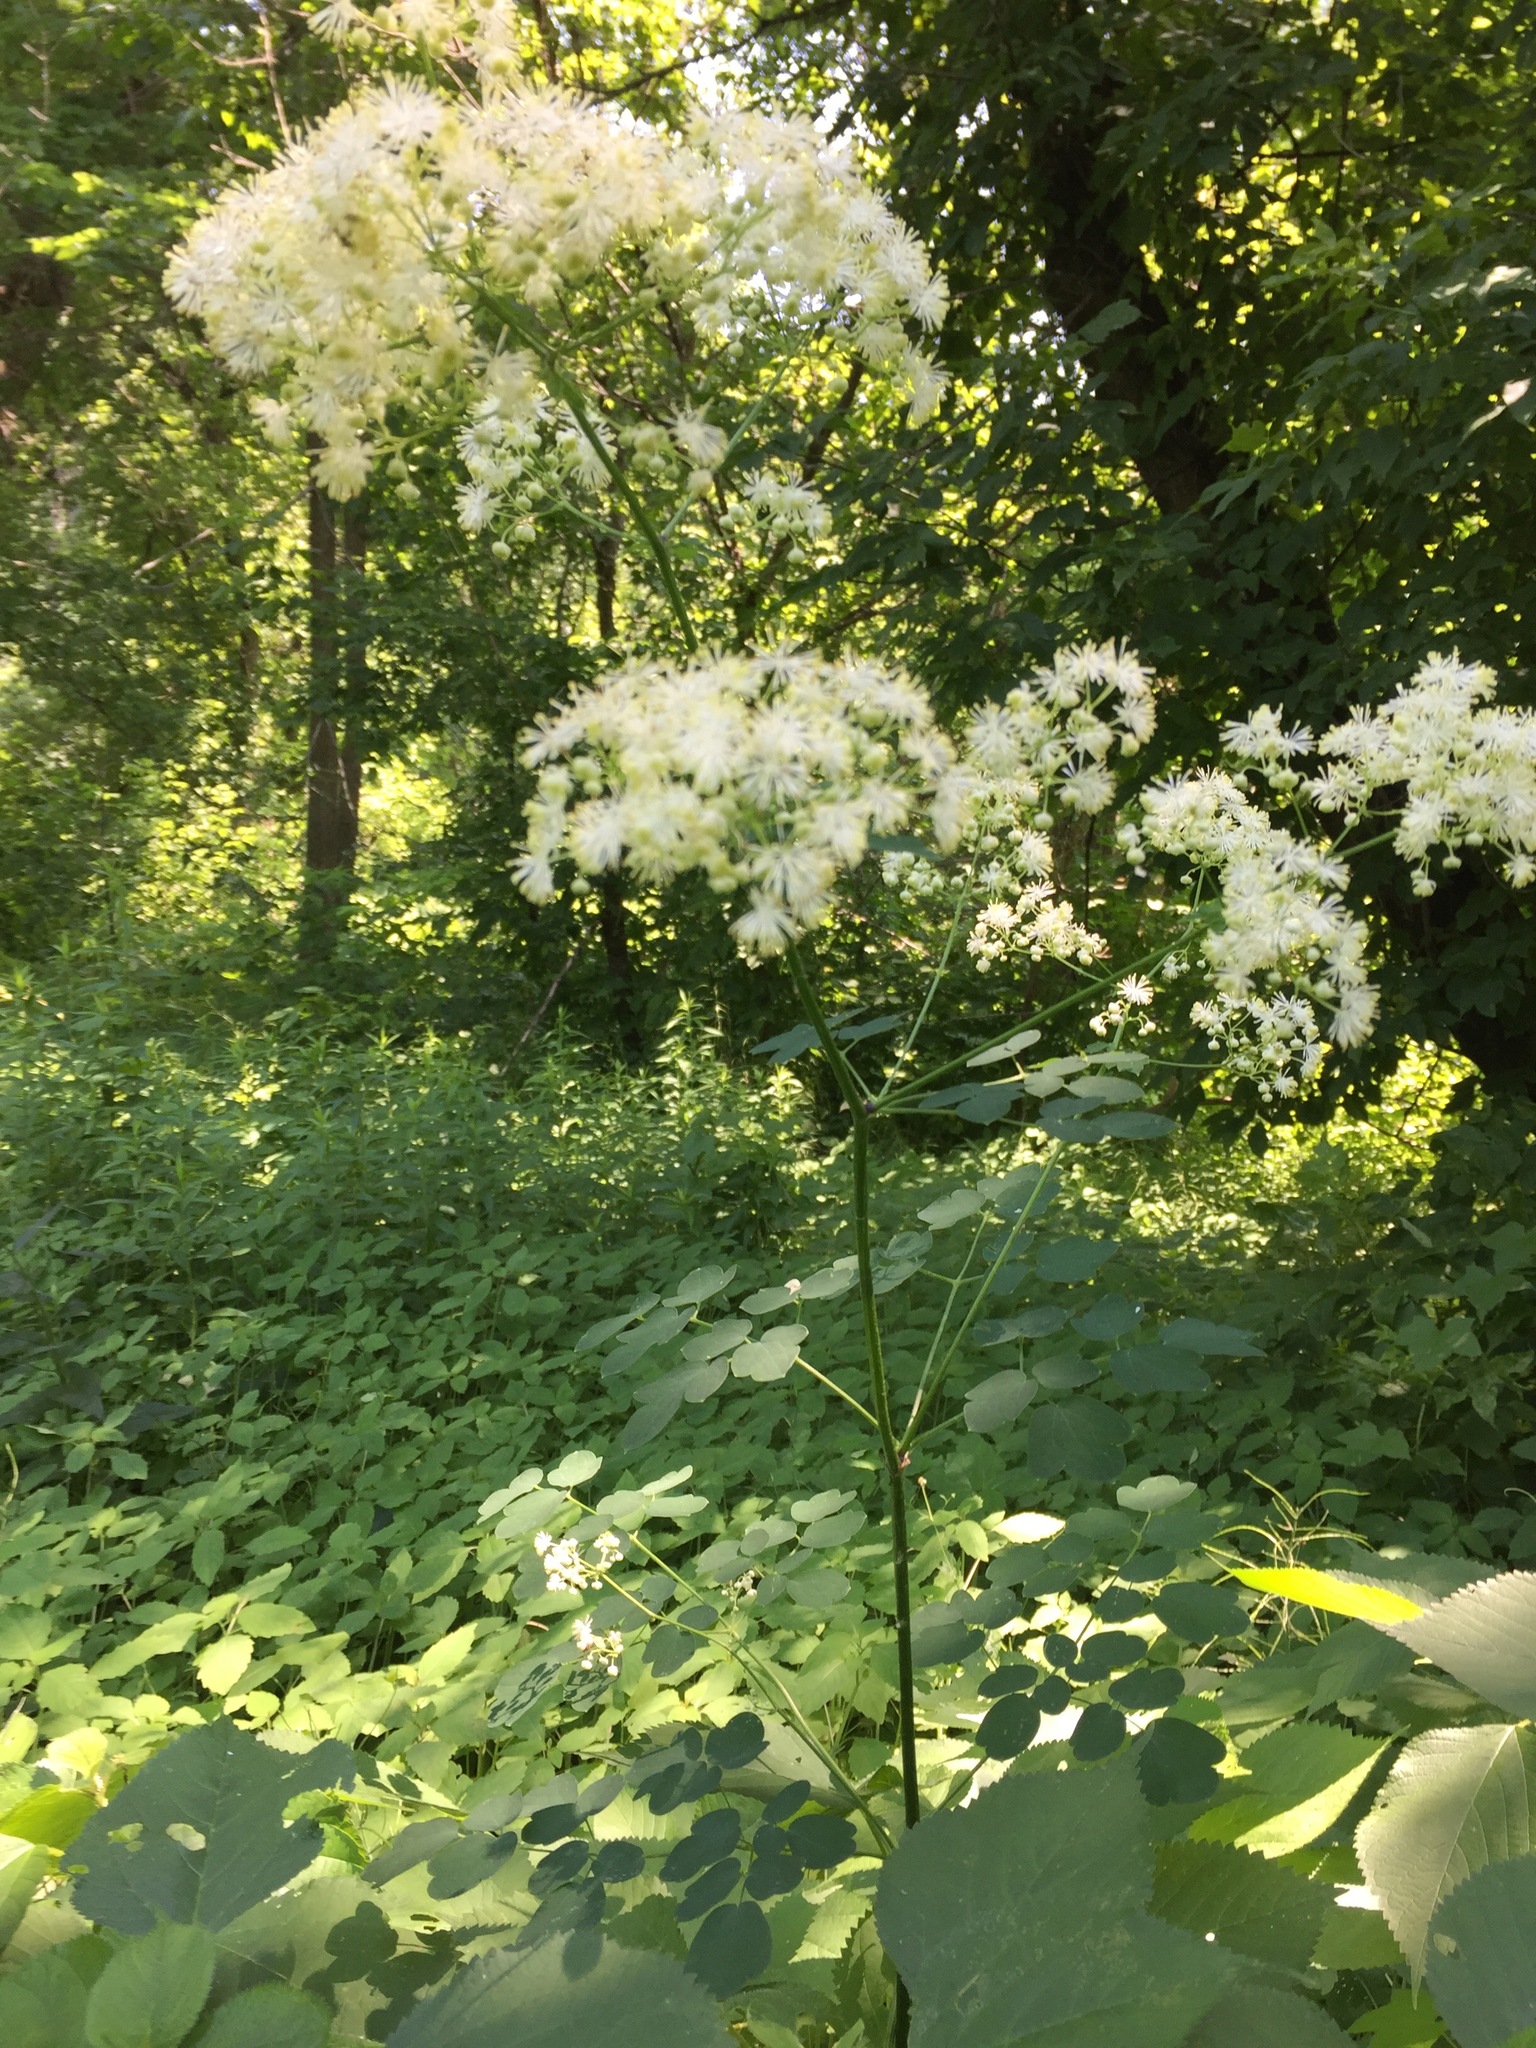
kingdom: Plantae
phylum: Tracheophyta
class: Magnoliopsida
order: Ranunculales
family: Ranunculaceae
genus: Thalictrum
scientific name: Thalictrum pubescens
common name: King-of-the-meadow
